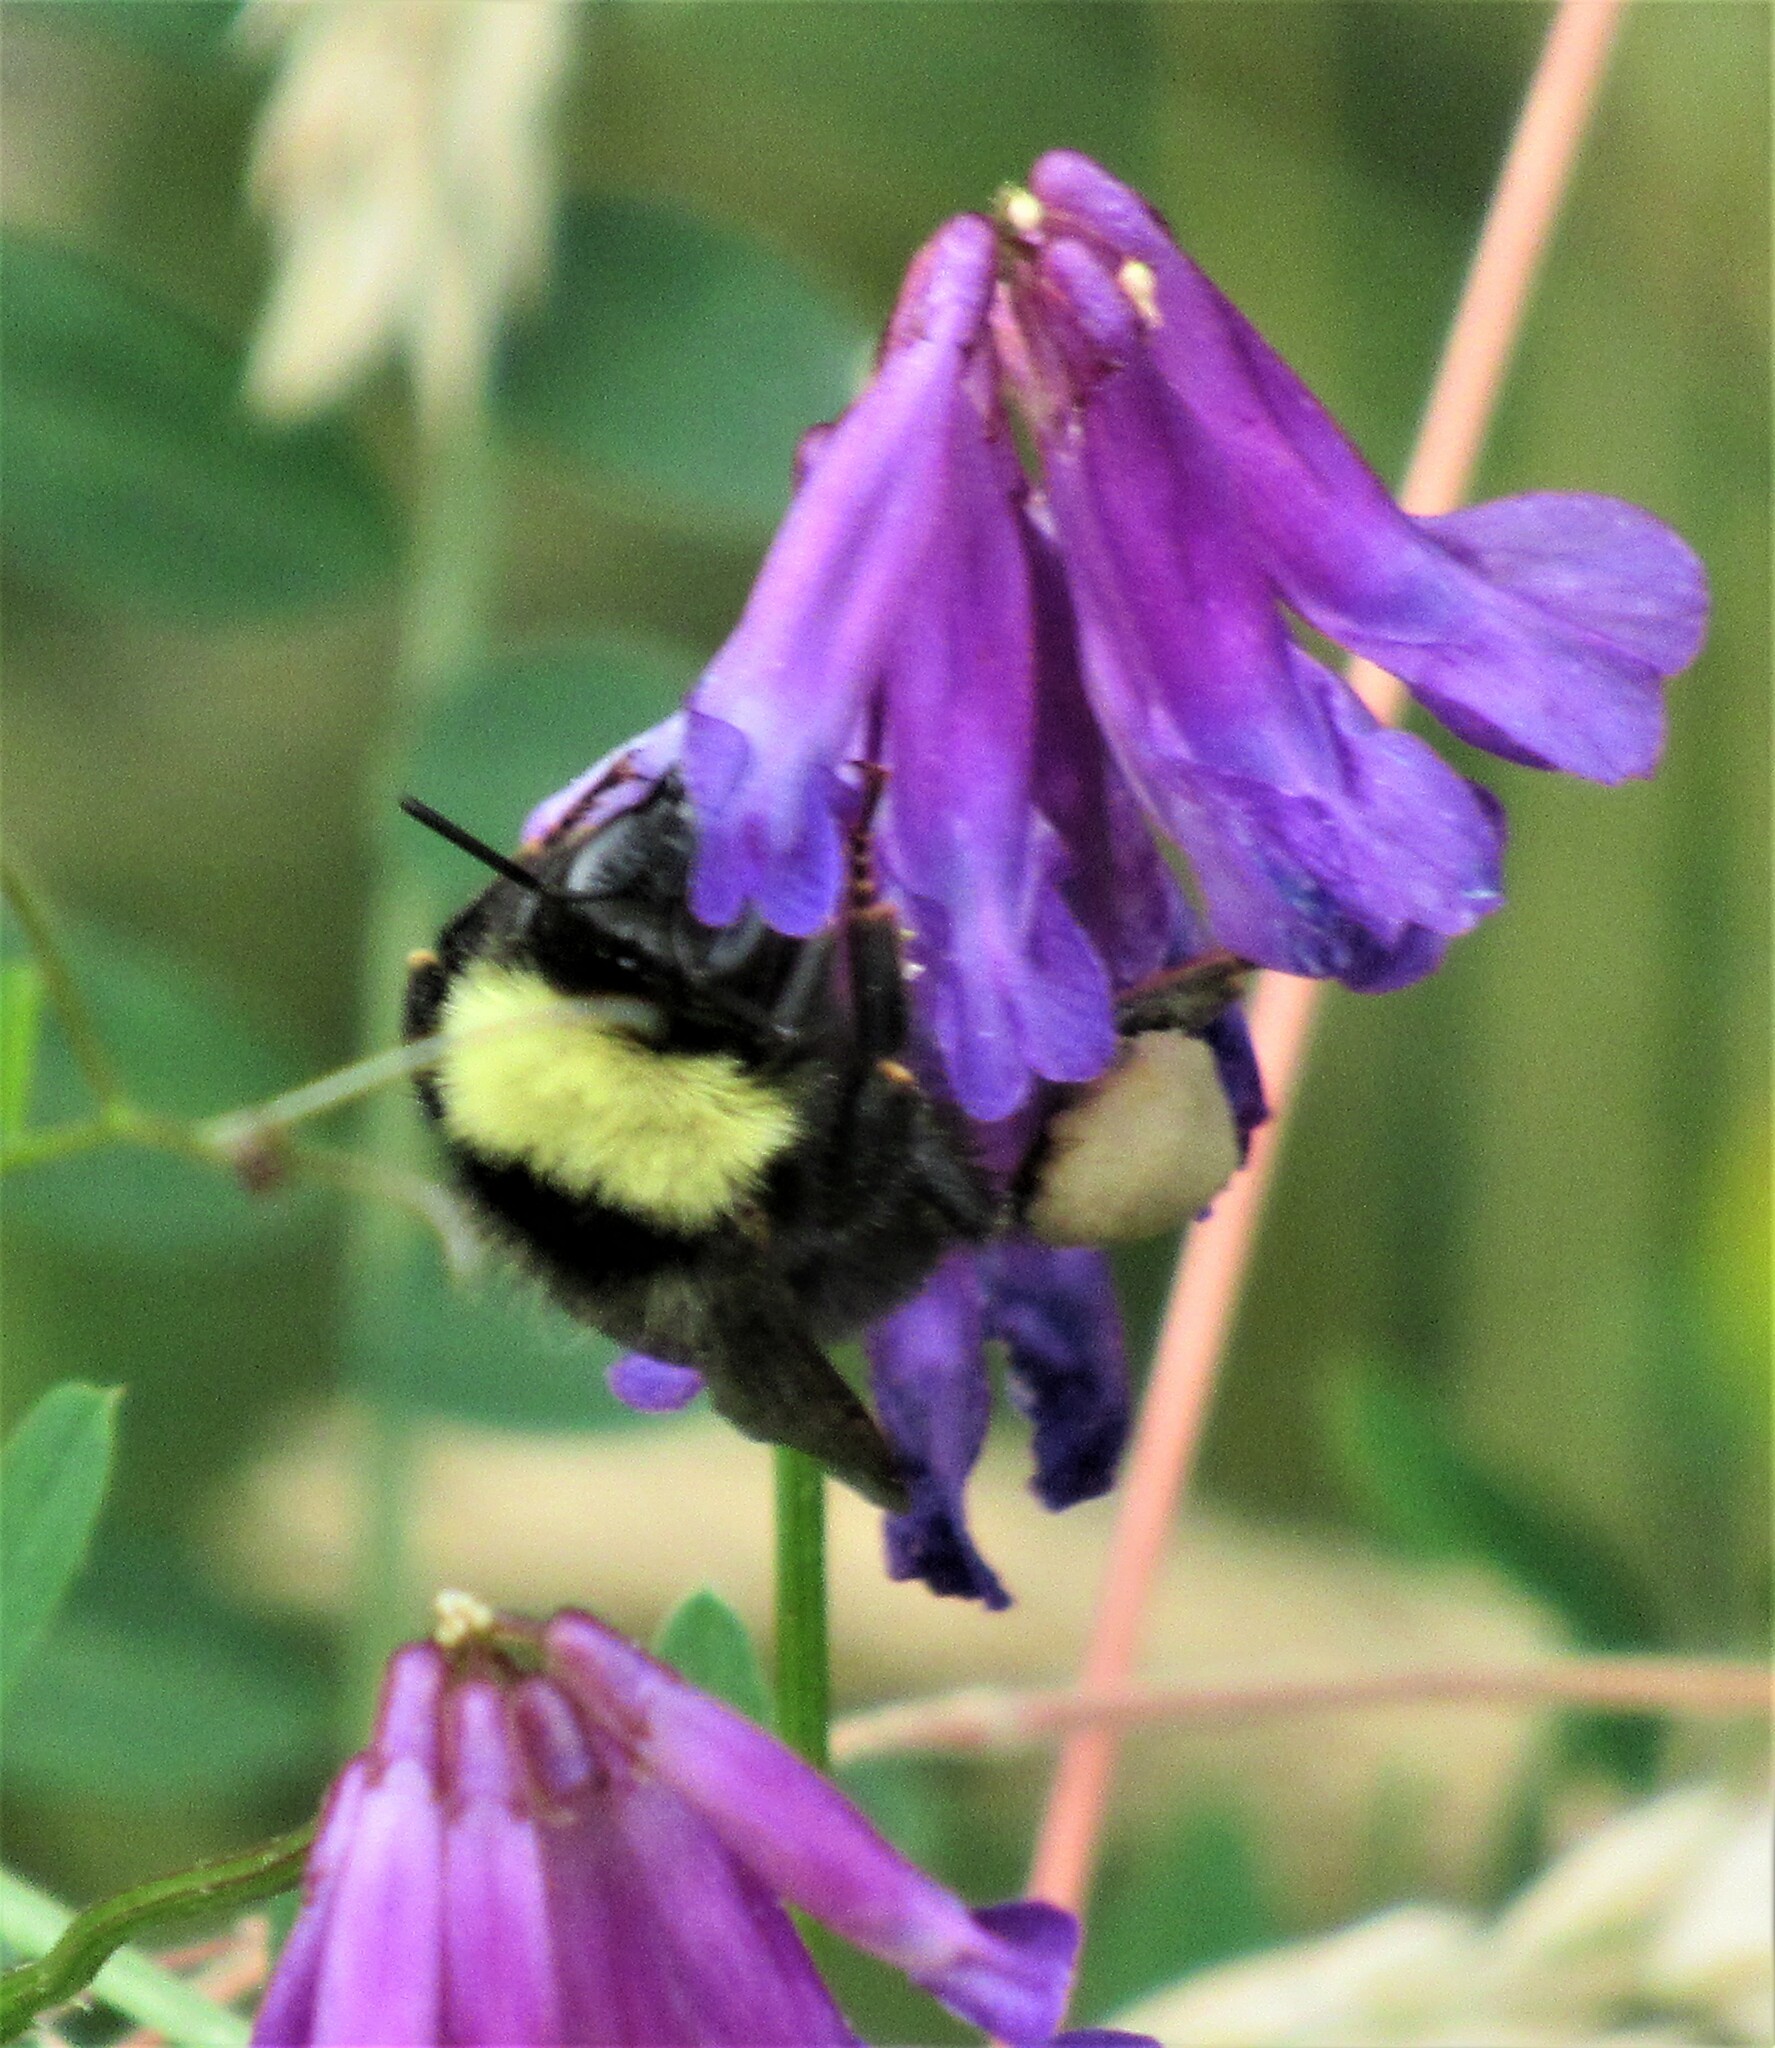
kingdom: Animalia
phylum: Arthropoda
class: Insecta
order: Hymenoptera
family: Apidae
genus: Bombus
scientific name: Bombus californicus
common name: California bumble bee
